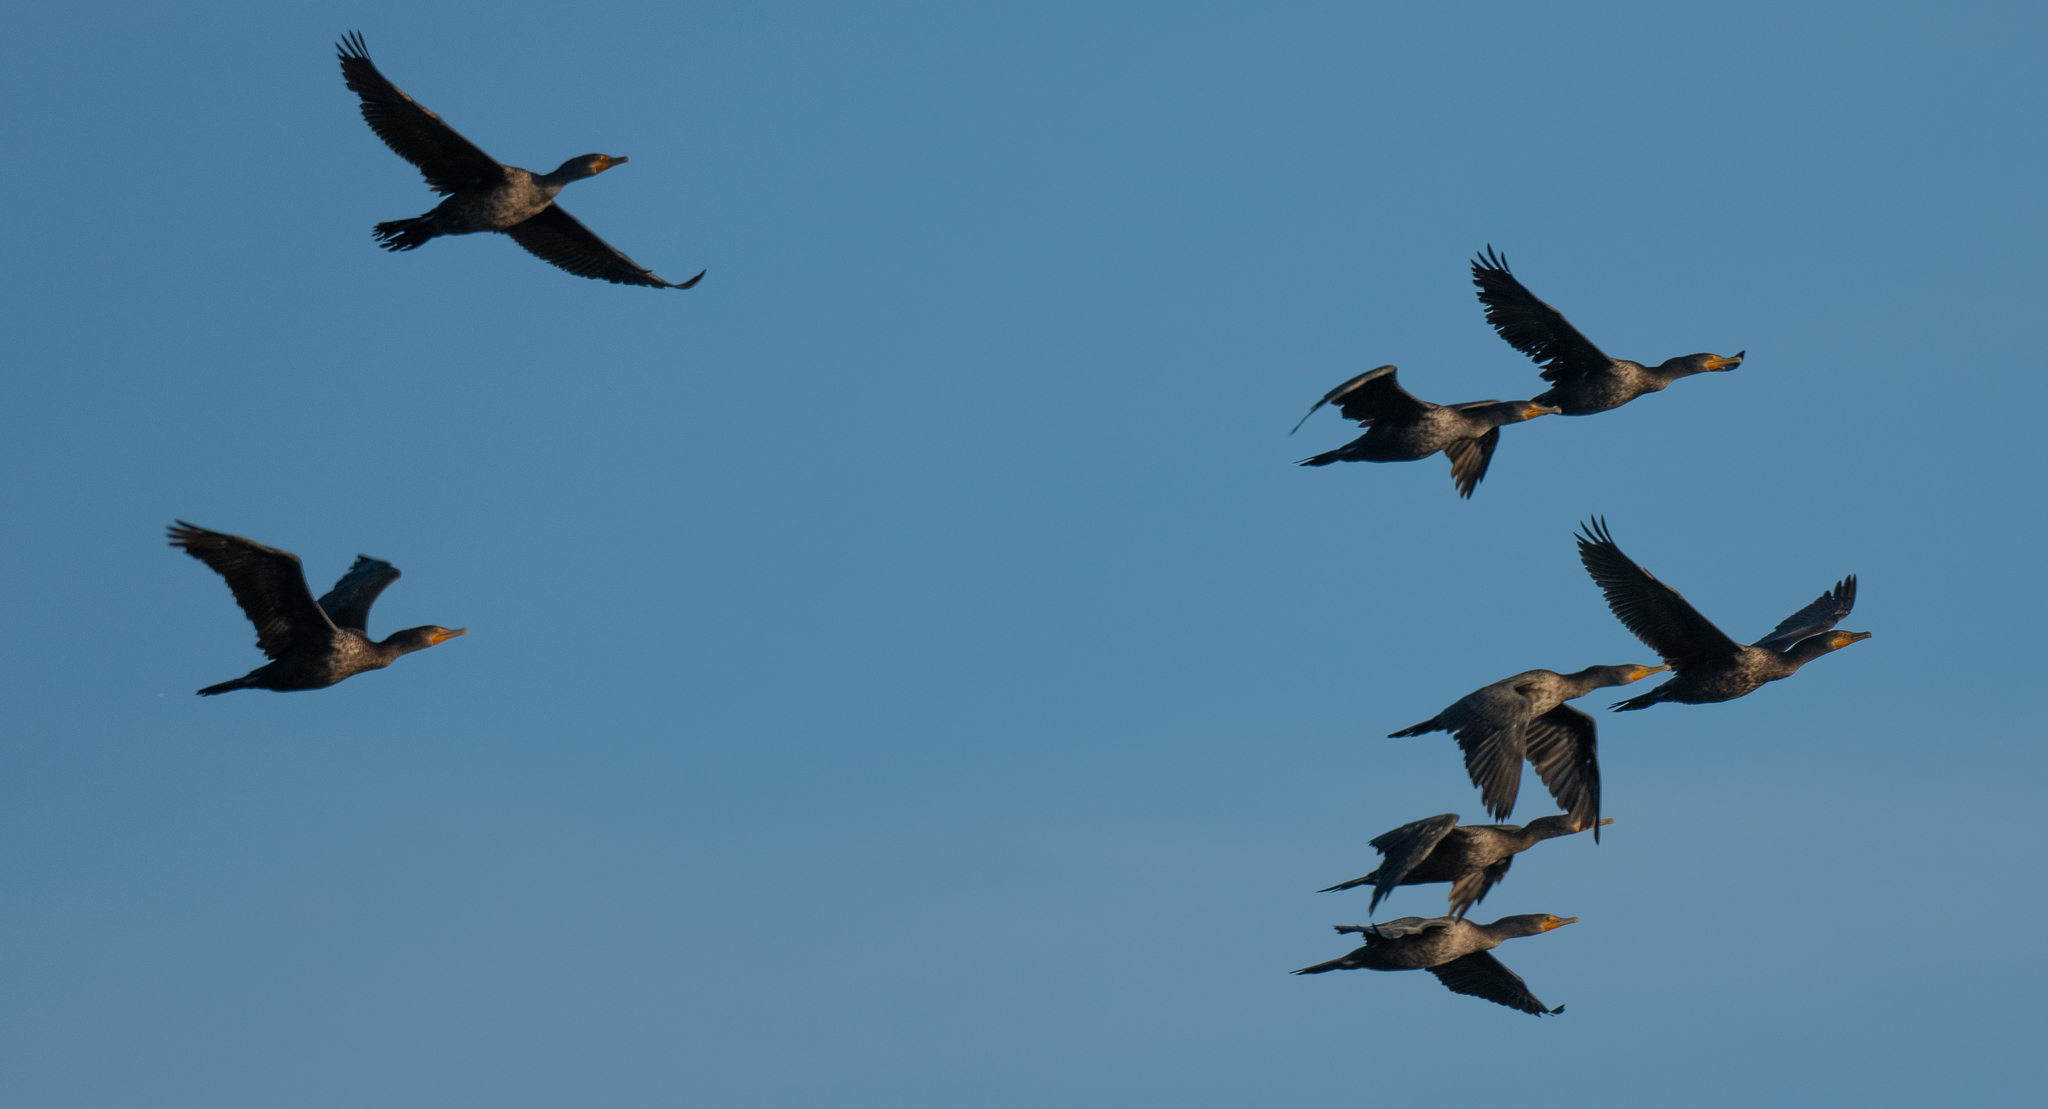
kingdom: Animalia
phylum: Chordata
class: Aves
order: Suliformes
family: Phalacrocoracidae
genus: Phalacrocorax
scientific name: Phalacrocorax auritus
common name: Double-crested cormorant
